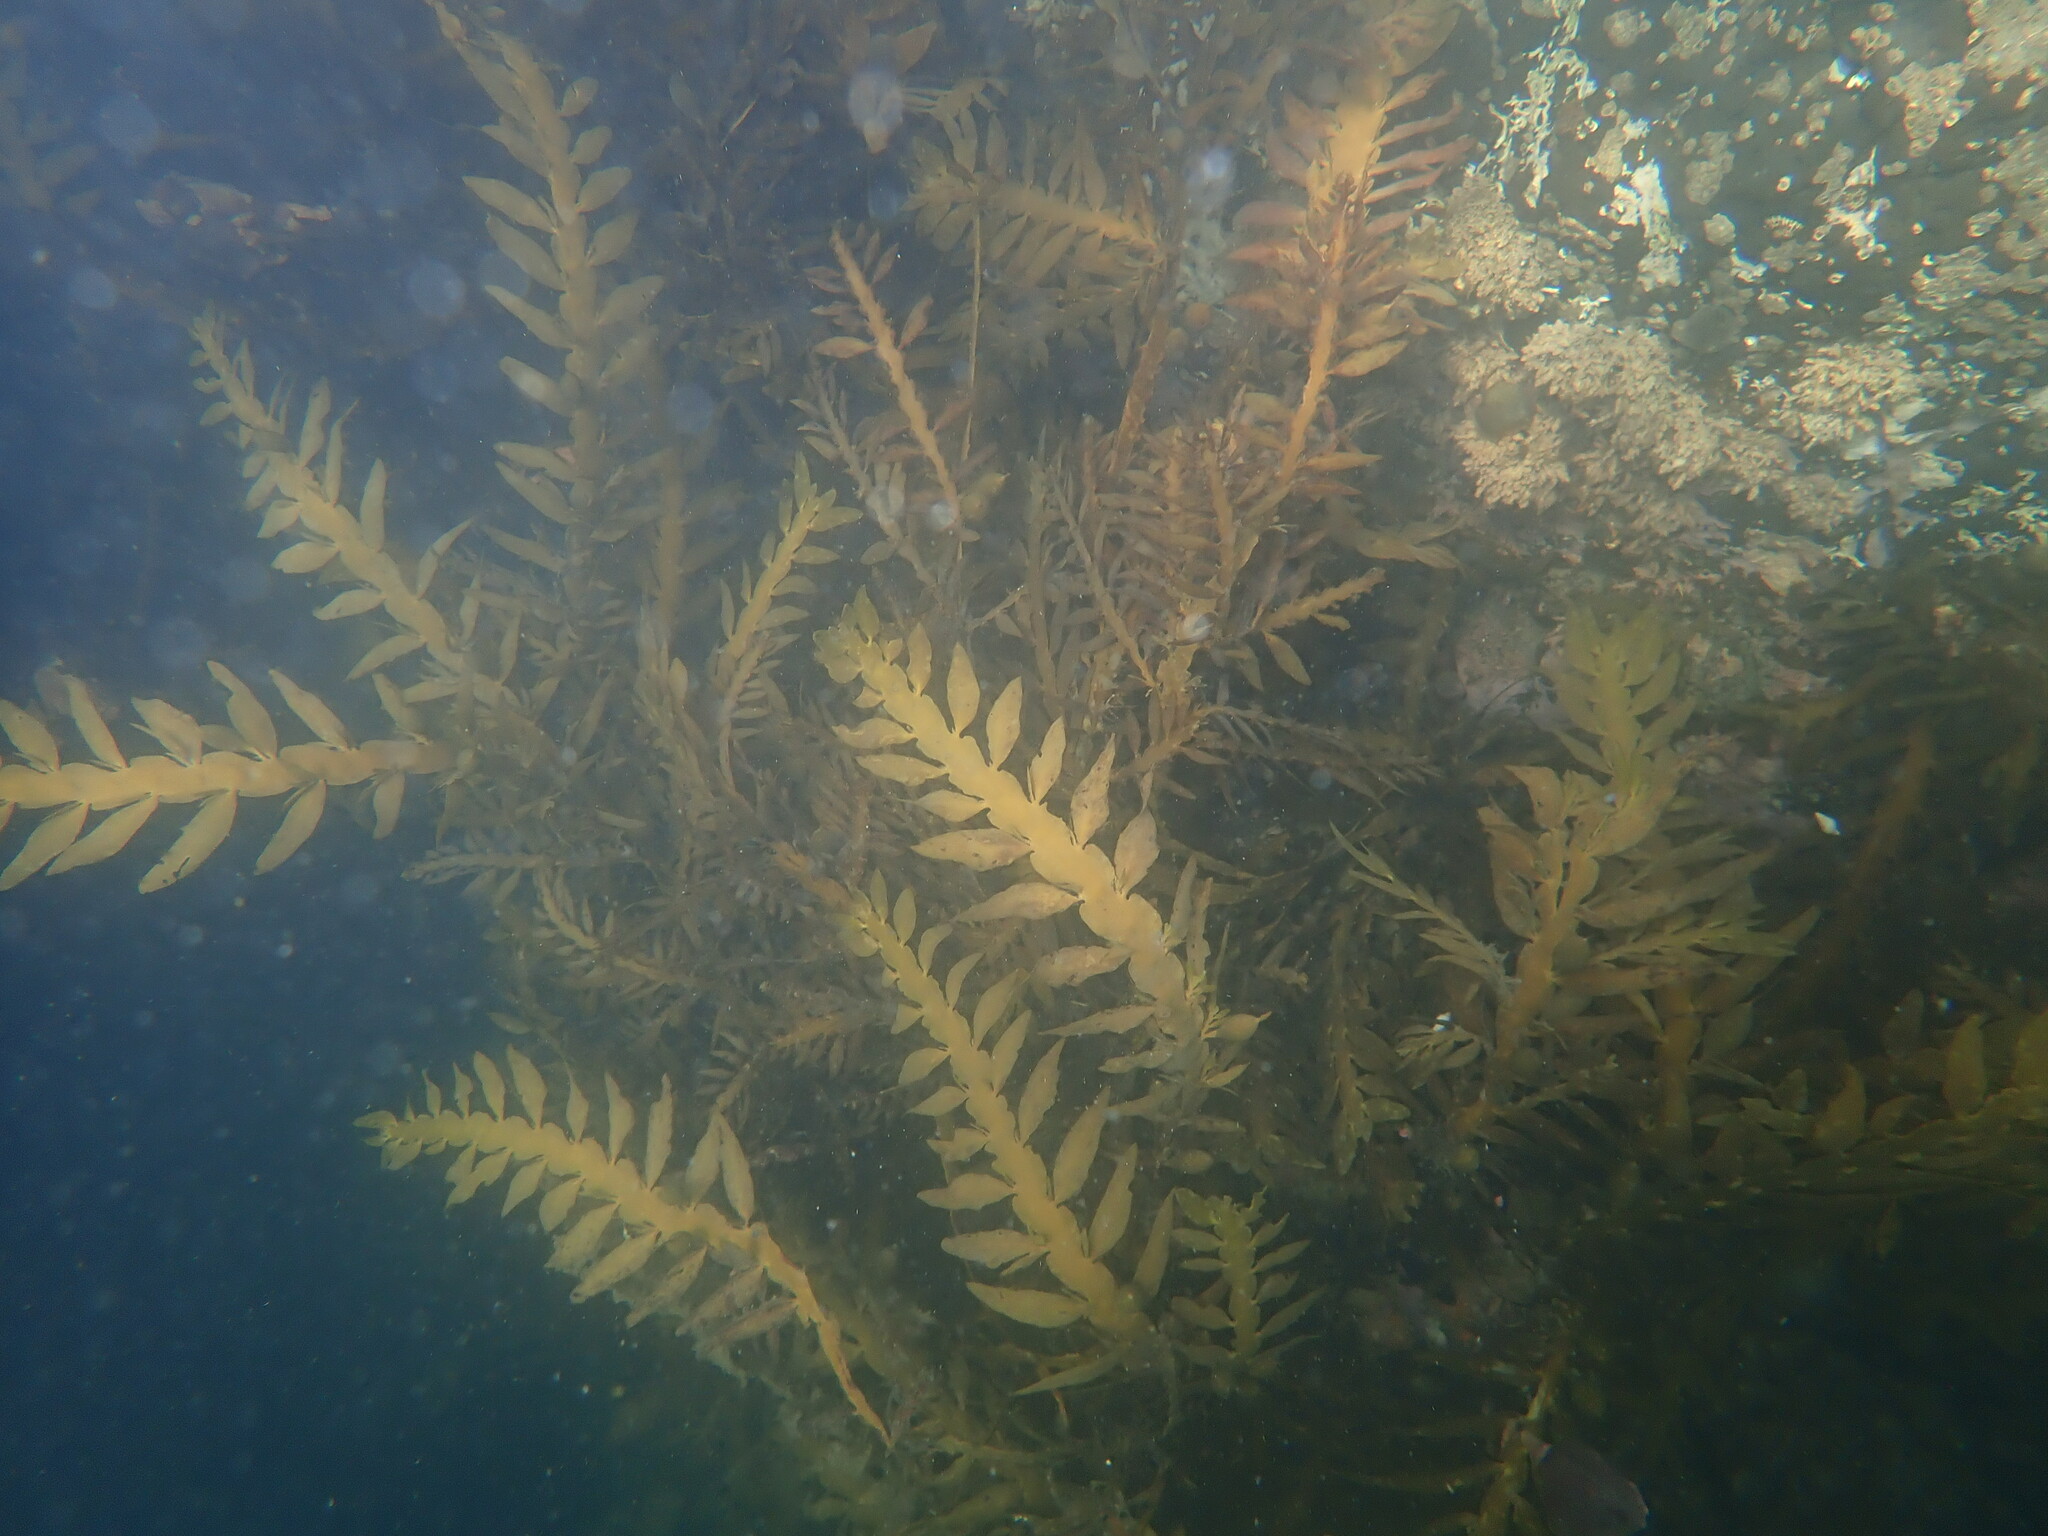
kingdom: Chromista
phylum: Ochrophyta
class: Phaeophyceae
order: Fucales
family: Sargassaceae
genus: Carpophyllum
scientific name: Carpophyllum maschalocarpum
